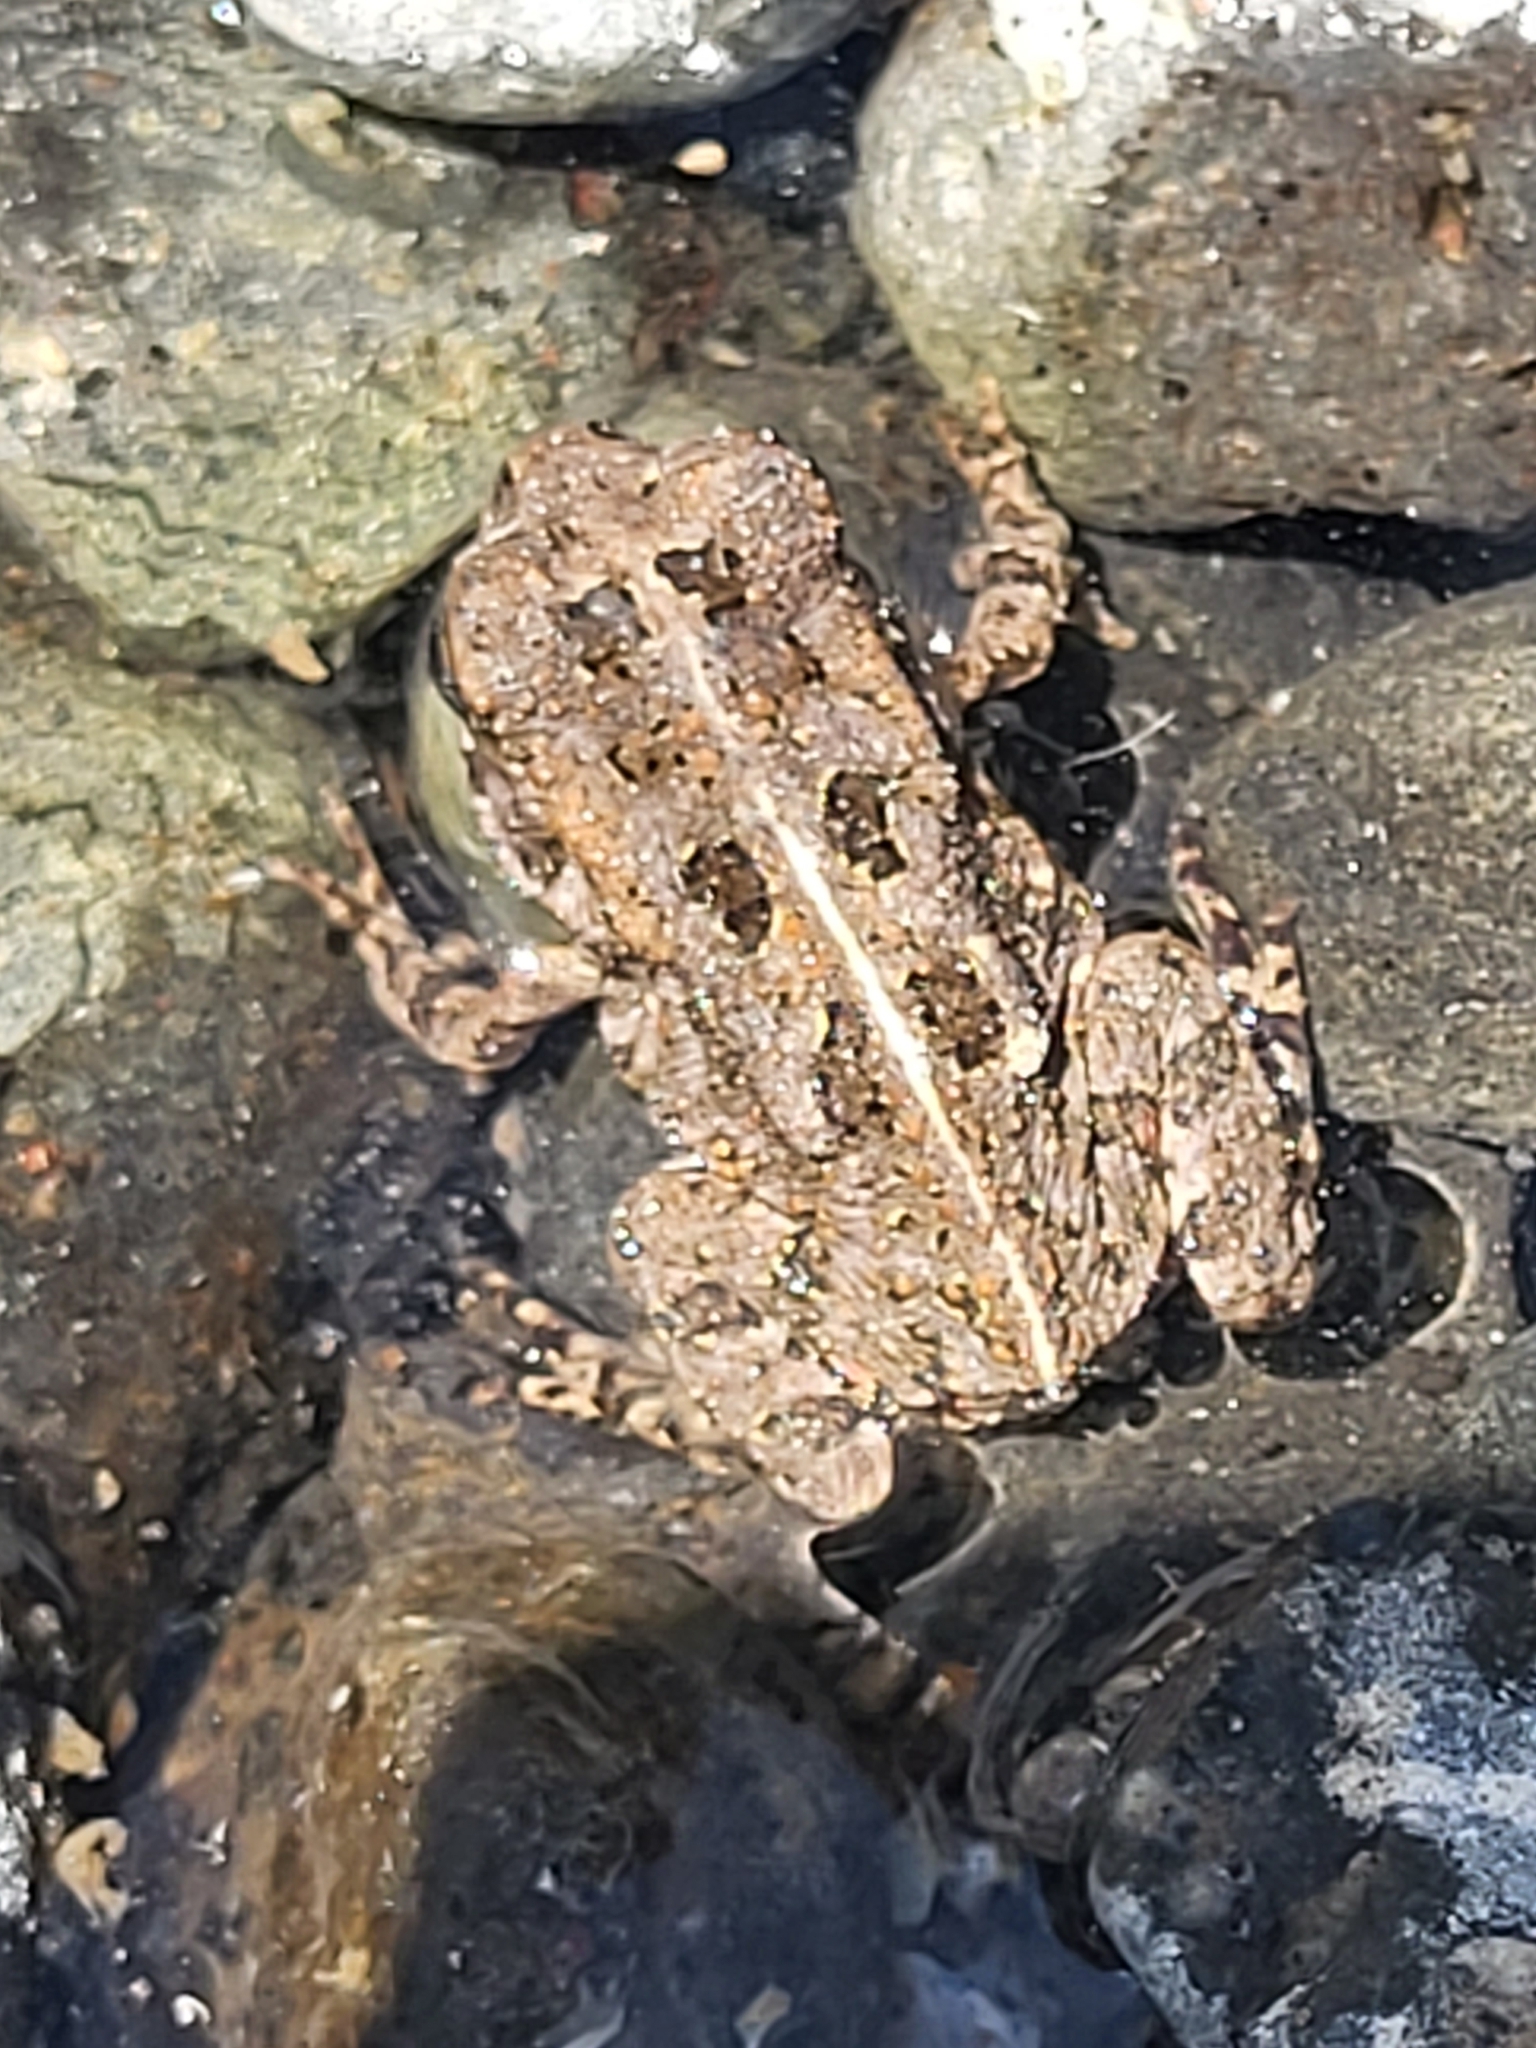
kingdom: Animalia
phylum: Chordata
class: Amphibia
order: Anura
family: Bufonidae
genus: Sclerophrys
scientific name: Sclerophrys gutturalis
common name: African common toad
